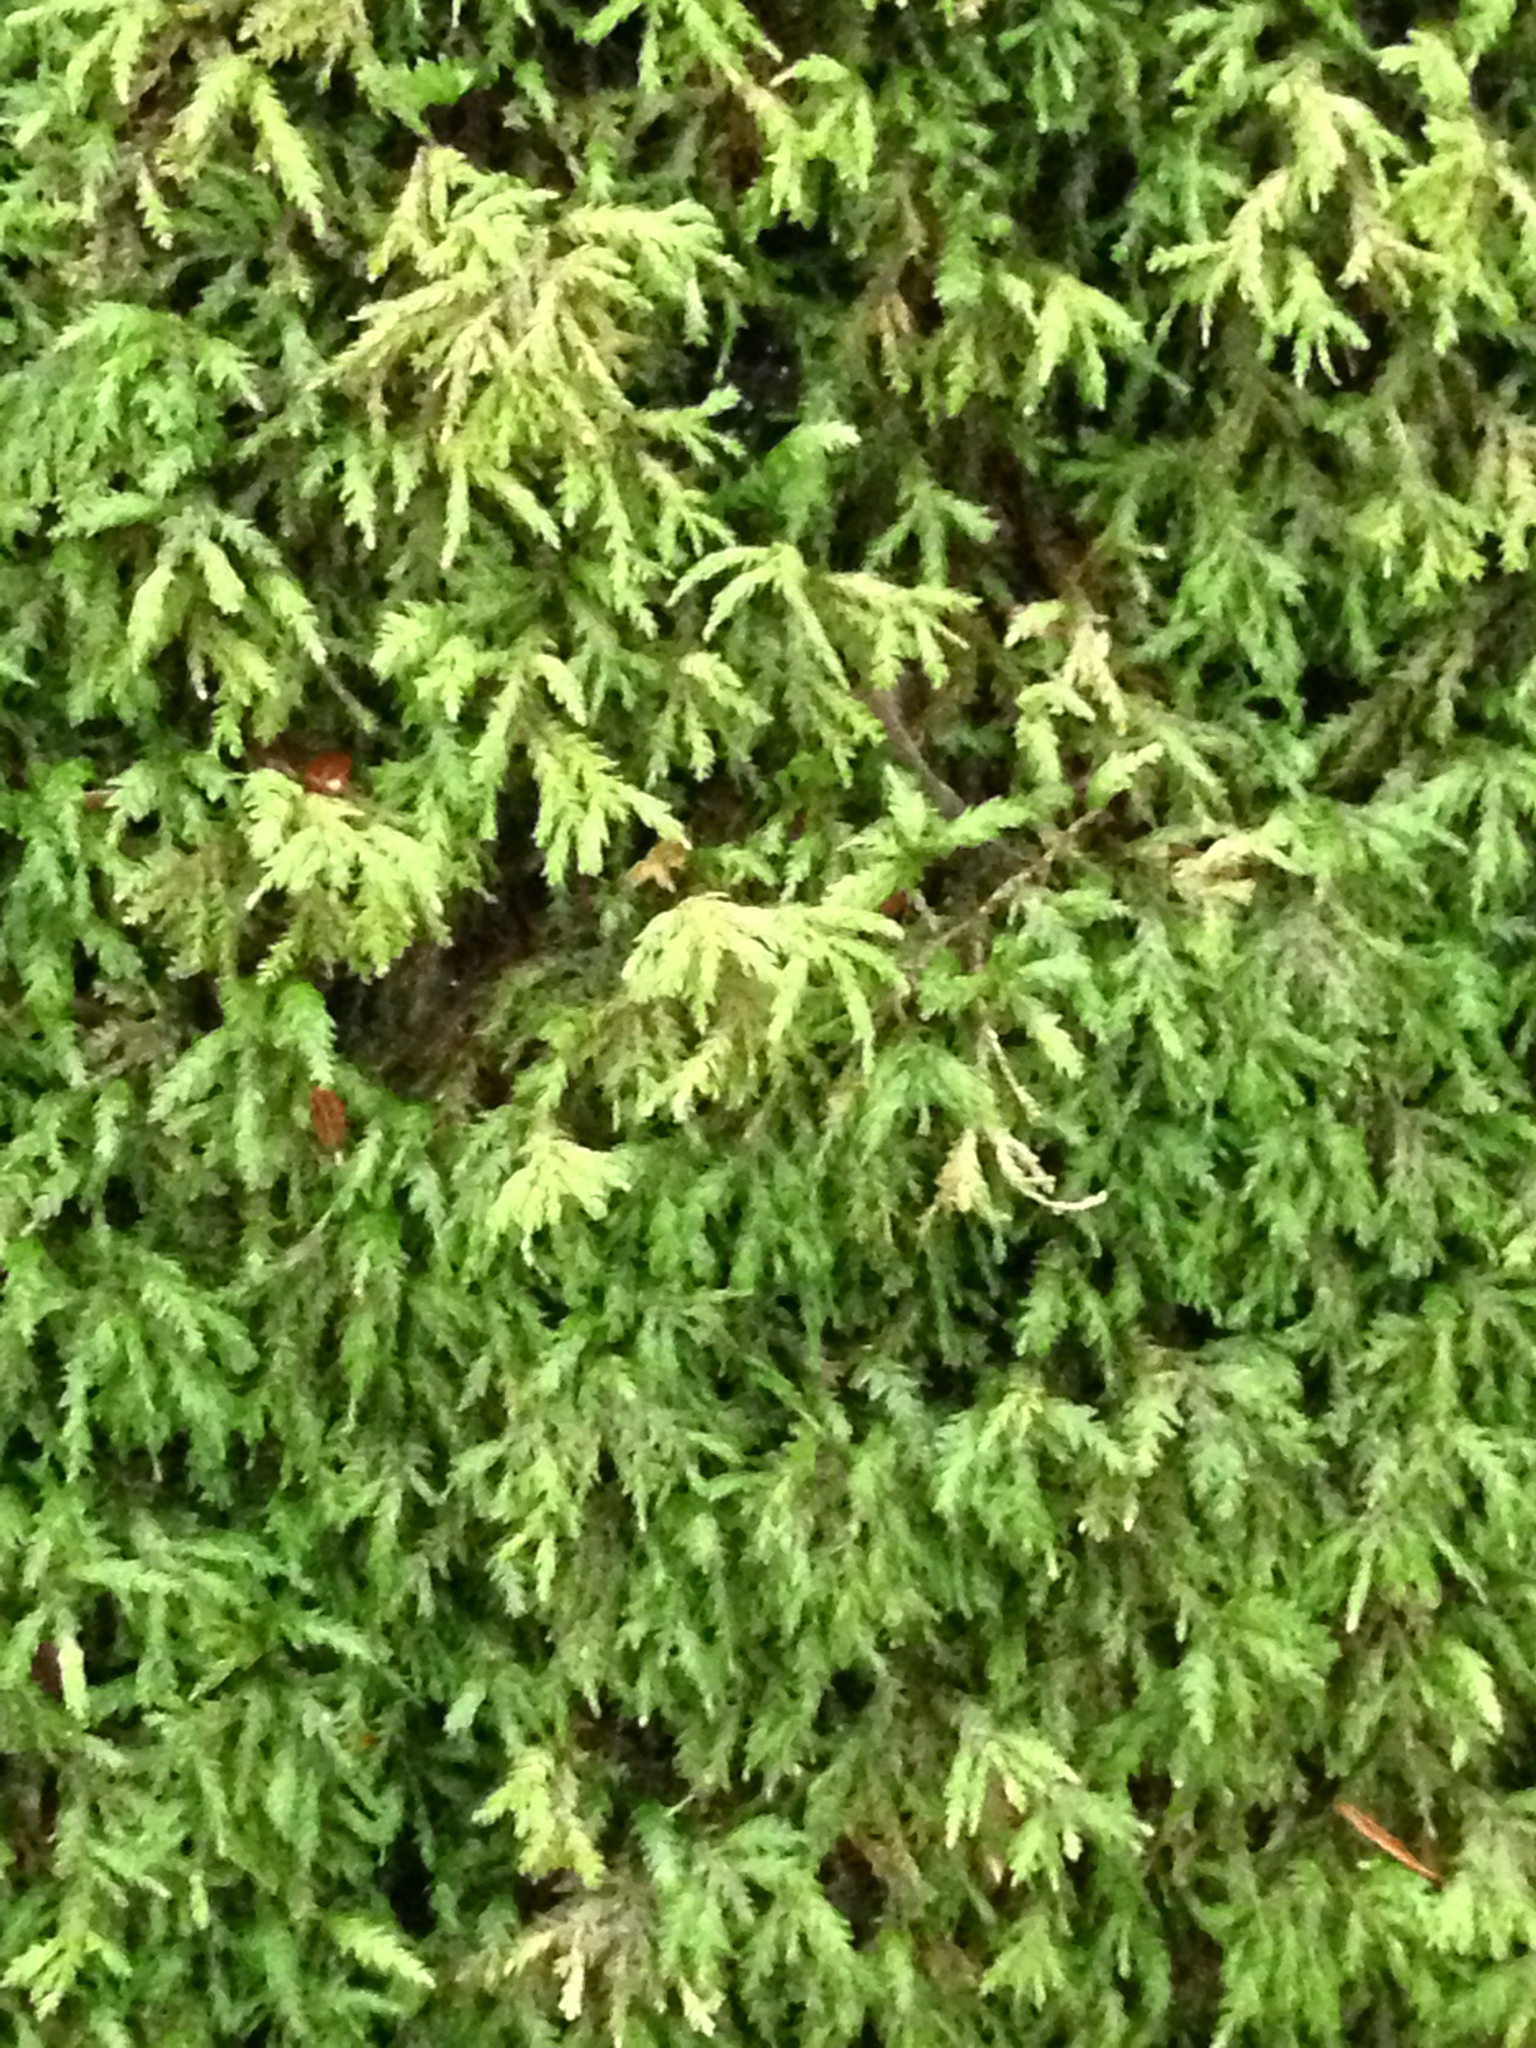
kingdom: Plantae
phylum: Bryophyta
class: Bryopsida
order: Hypnales
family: Neckeraceae
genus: Pseudanomodon
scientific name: Pseudanomodon attenuatus
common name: Tree-skirt moss
